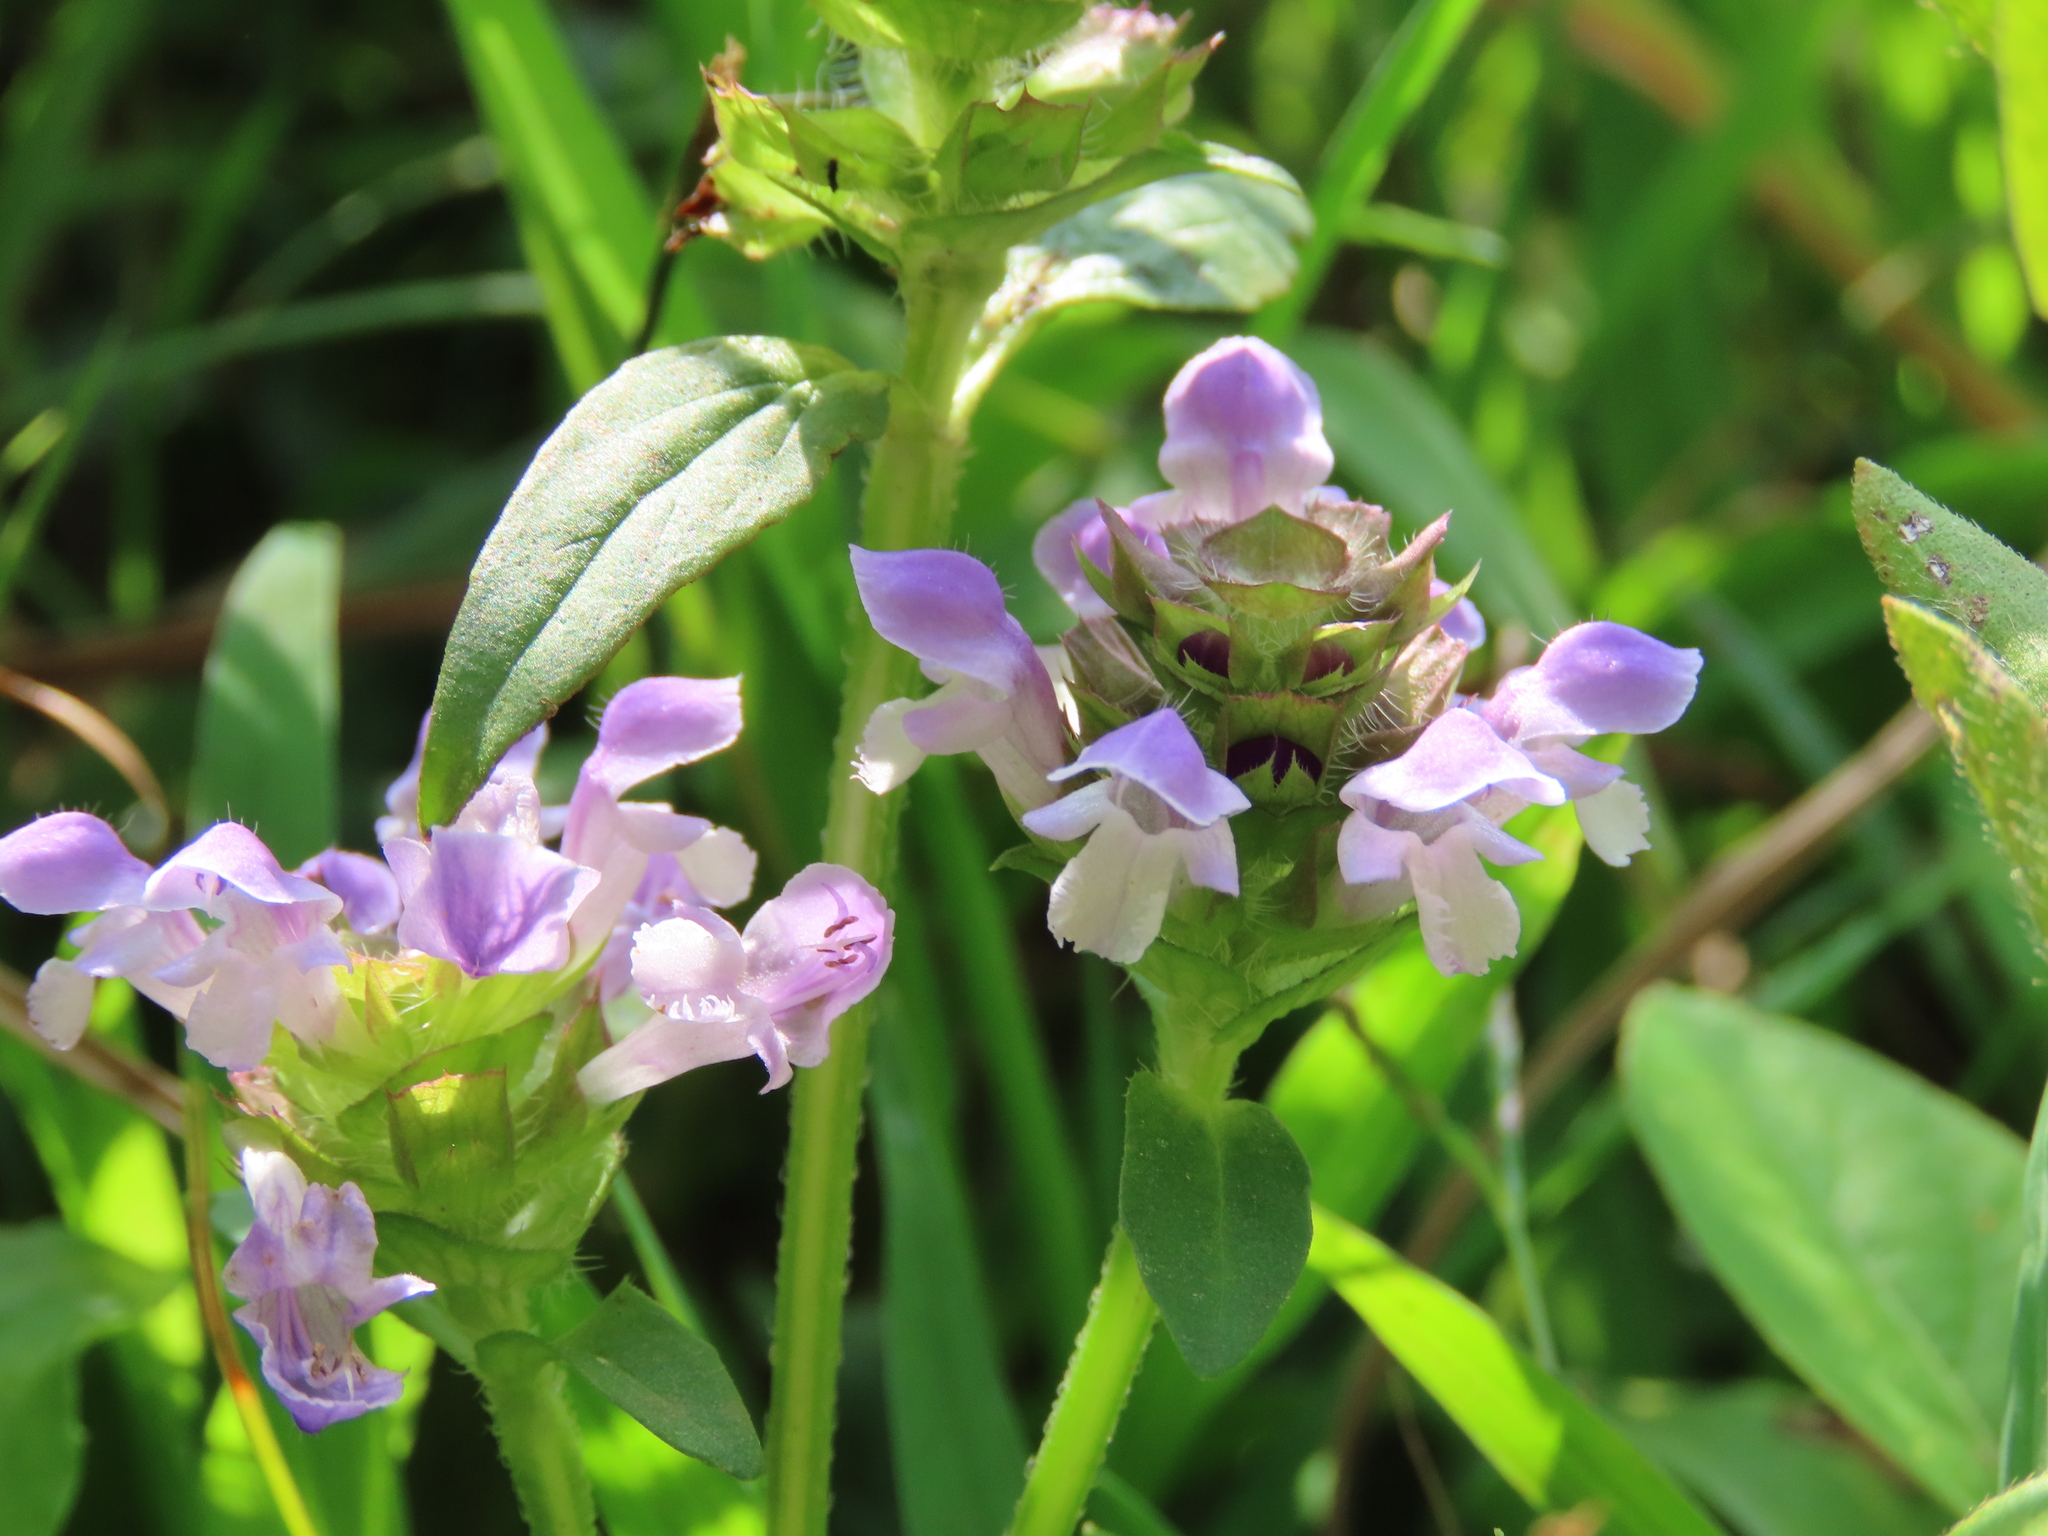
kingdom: Plantae
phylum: Tracheophyta
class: Magnoliopsida
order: Lamiales
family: Lamiaceae
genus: Prunella
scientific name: Prunella vulgaris
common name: Heal-all
